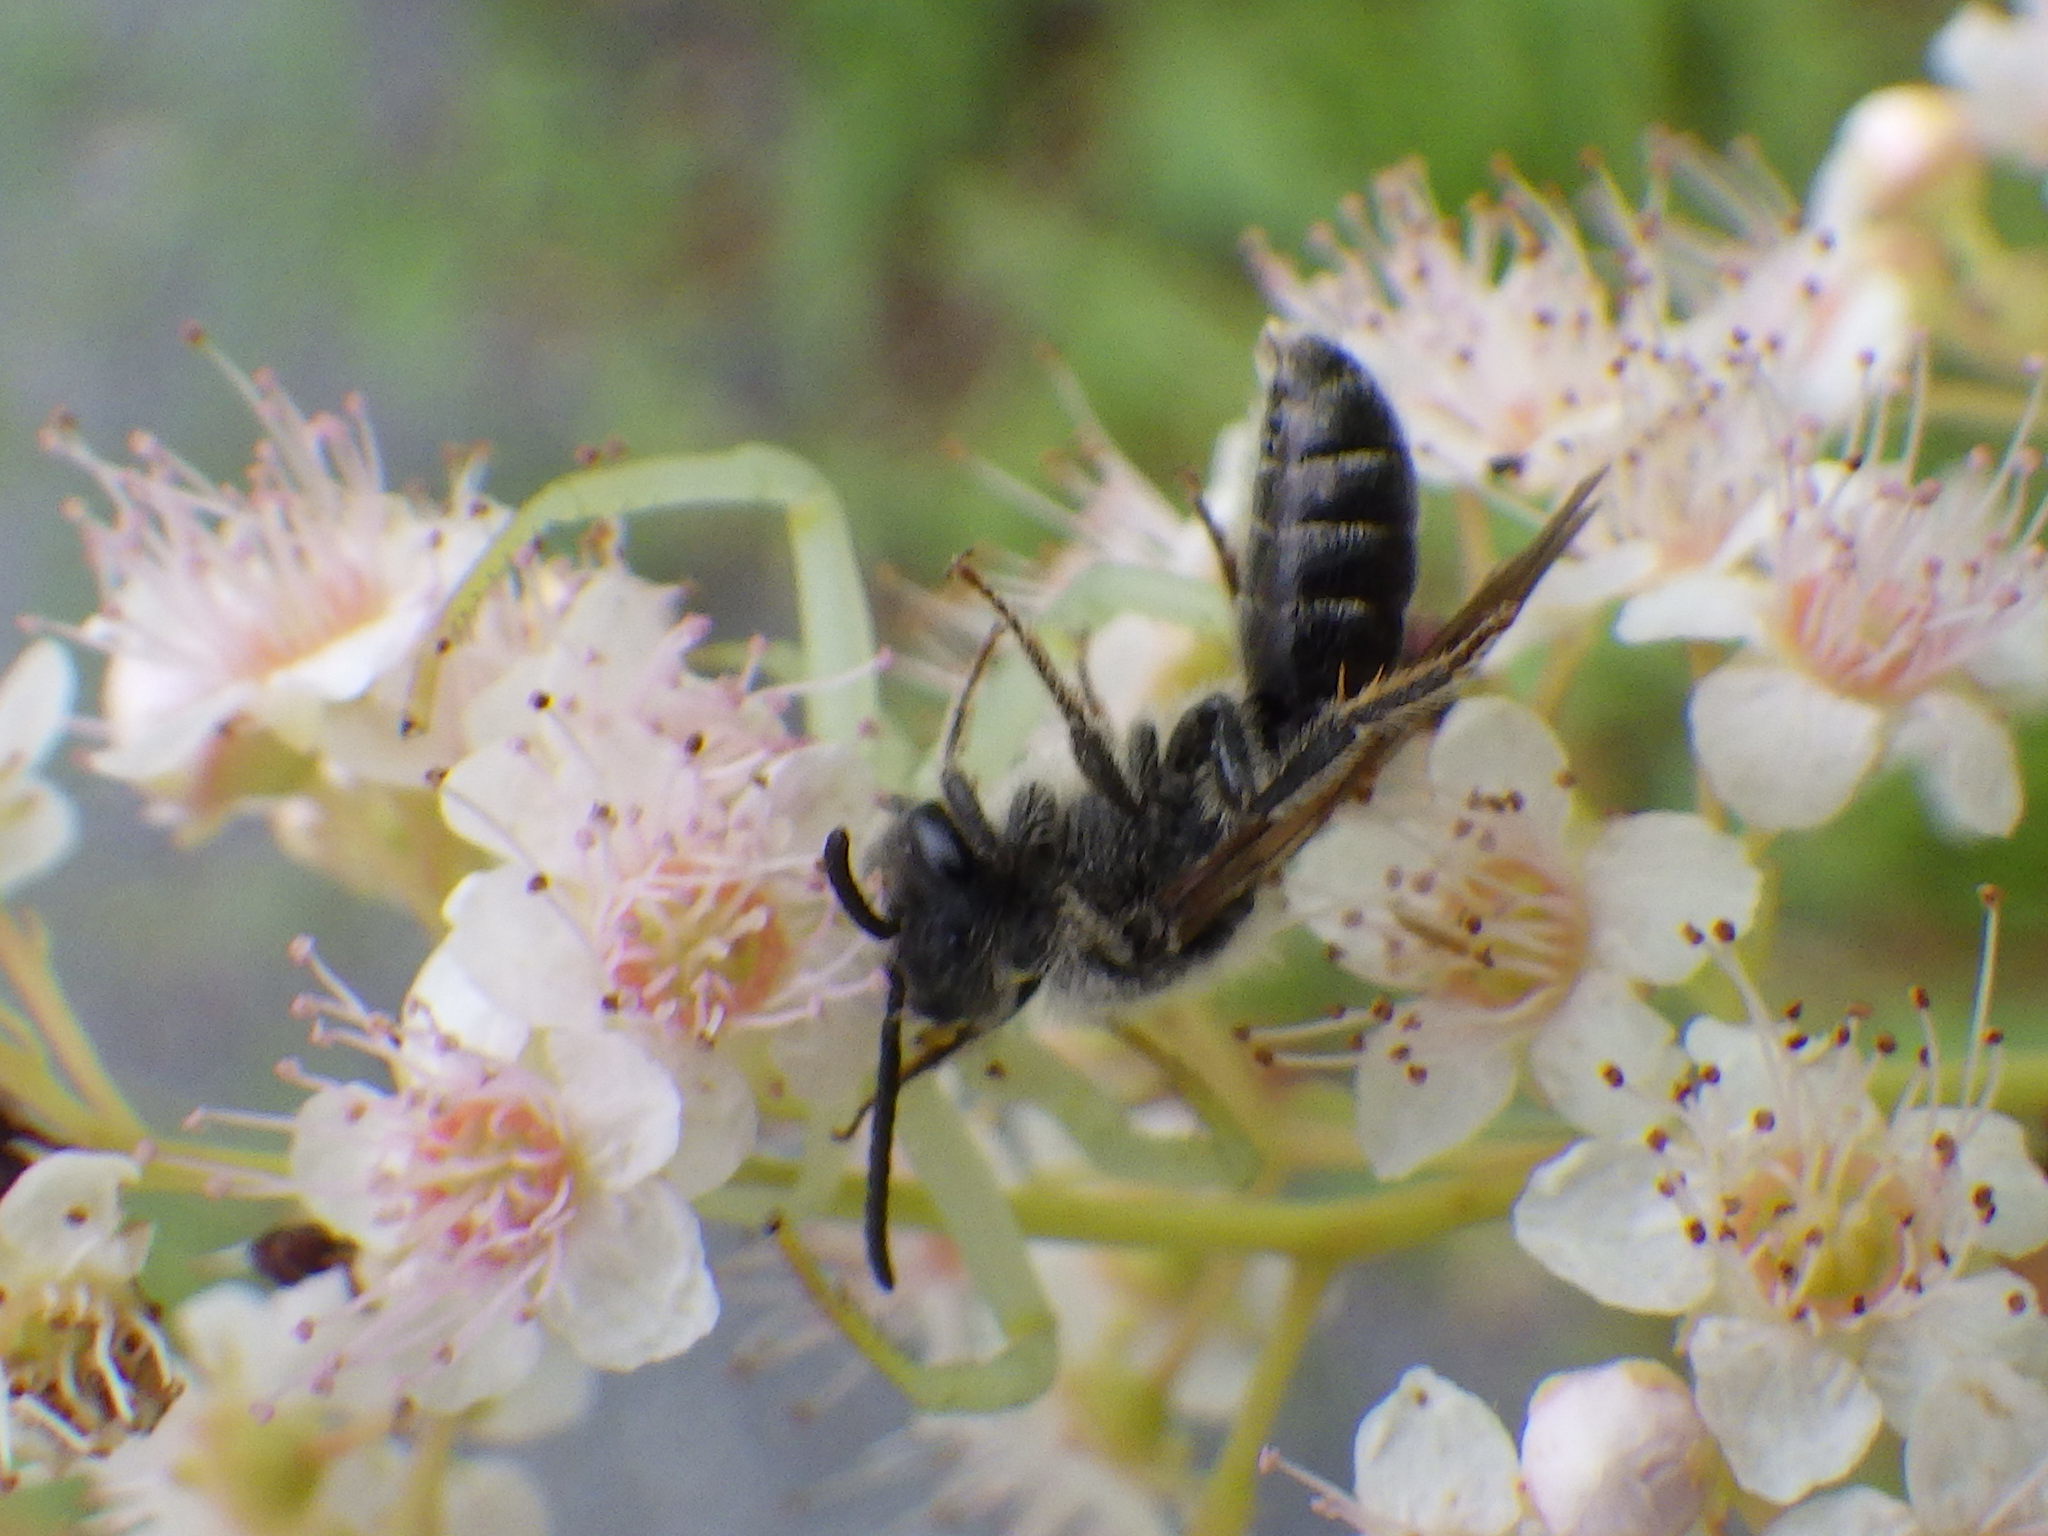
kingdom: Animalia
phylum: Arthropoda
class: Arachnida
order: Araneae
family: Thomisidae
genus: Misumena
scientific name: Misumena vatia
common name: Goldenrod crab spider
